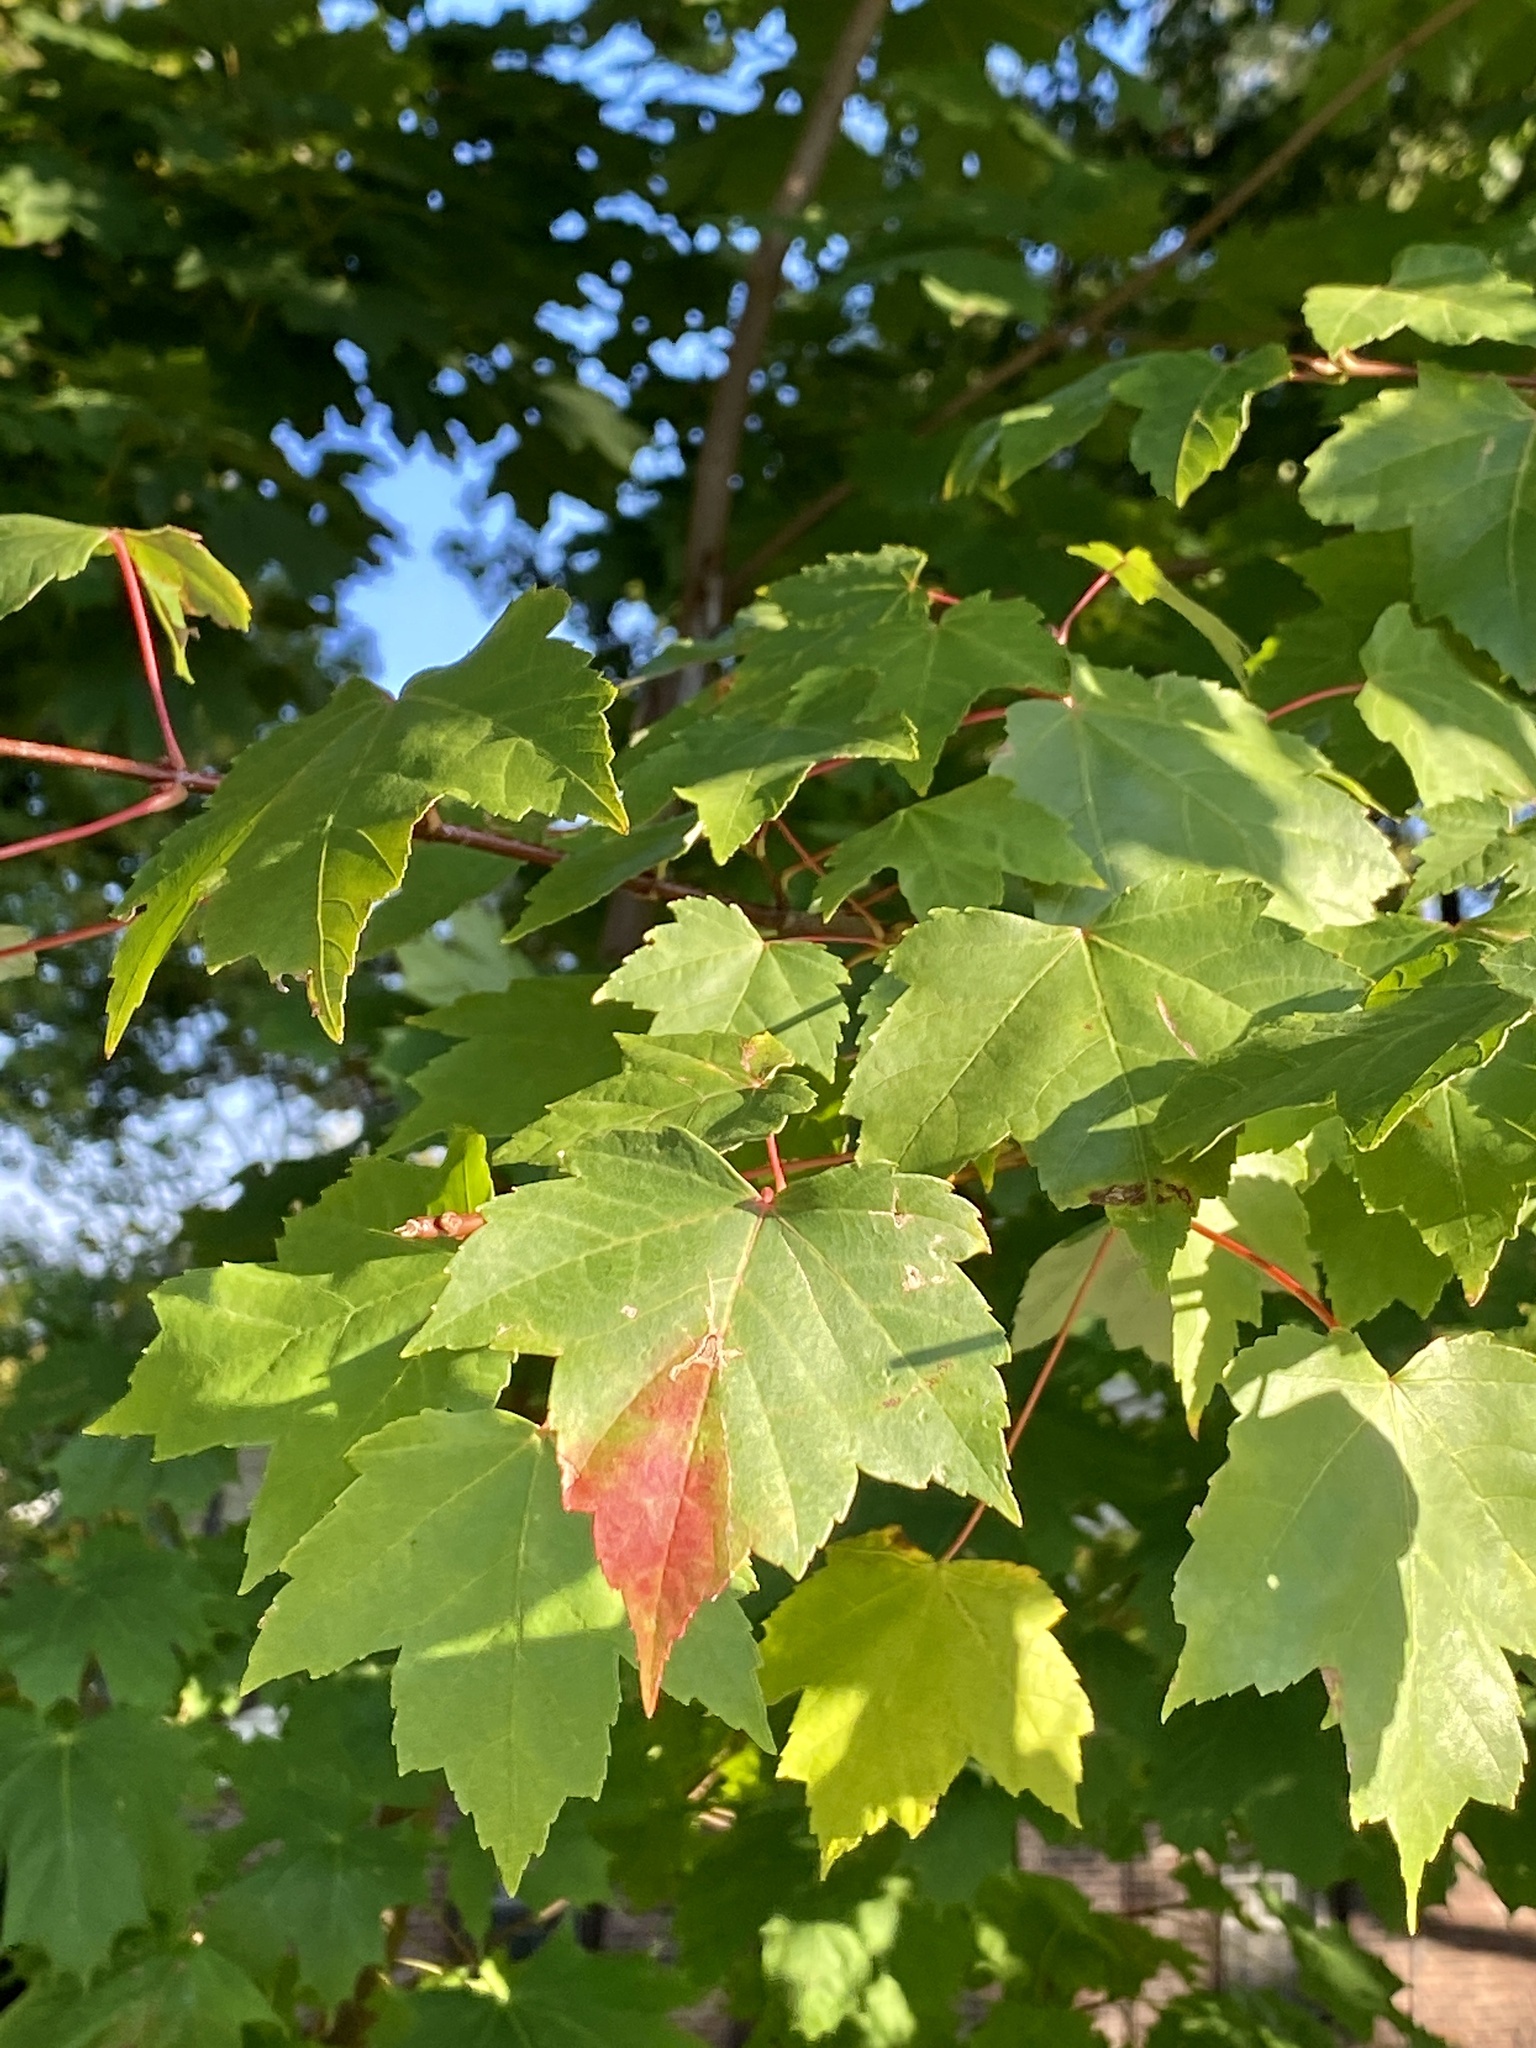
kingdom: Plantae
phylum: Tracheophyta
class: Magnoliopsida
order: Sapindales
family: Sapindaceae
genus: Acer
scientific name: Acer rubrum
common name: Red maple
